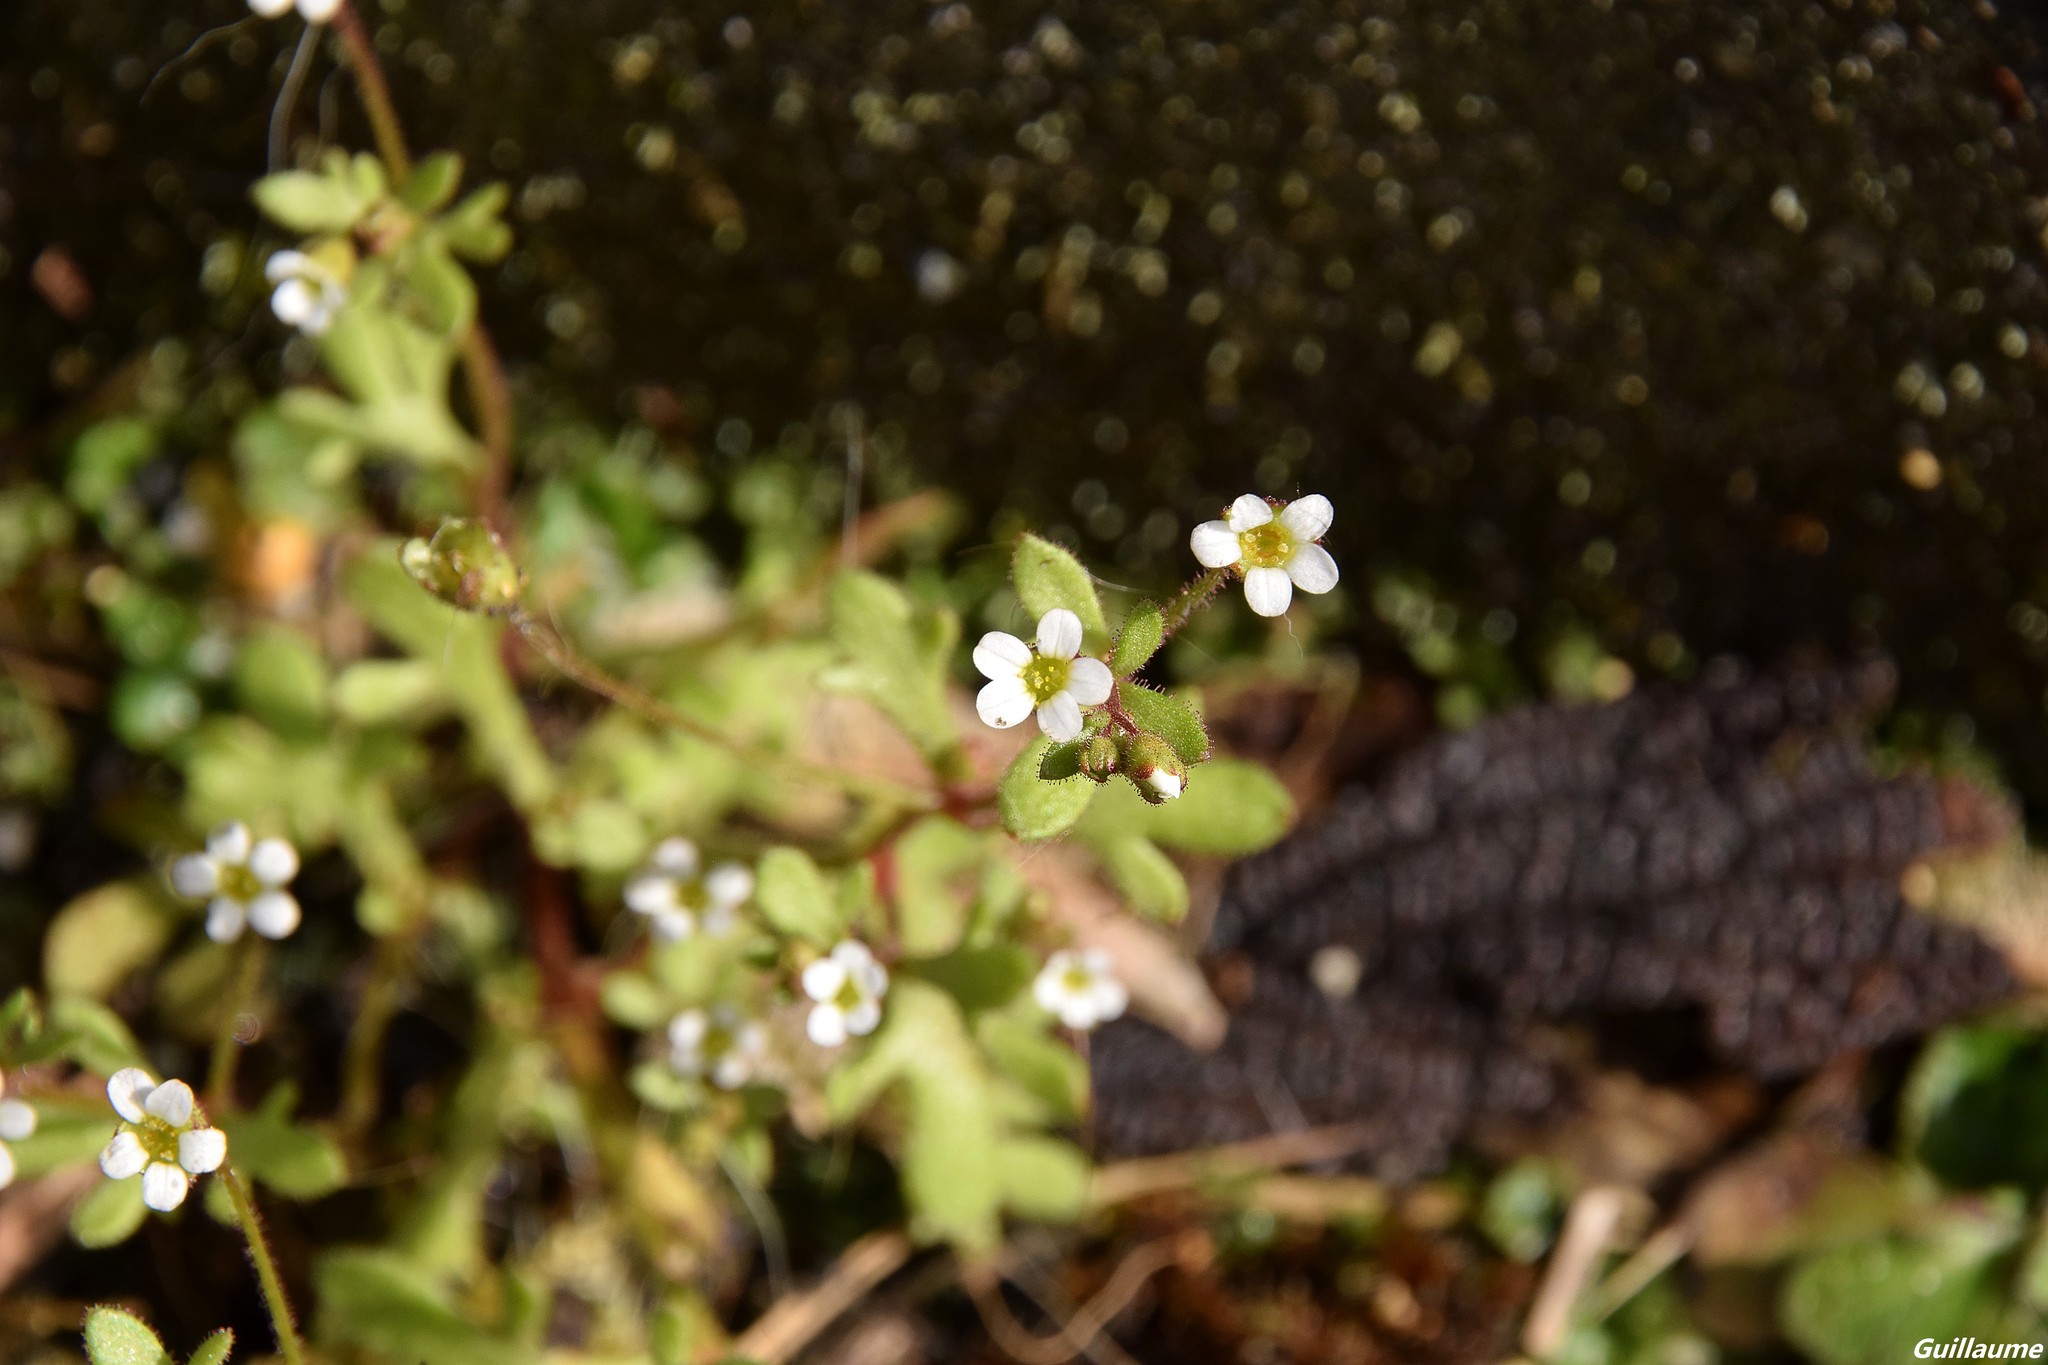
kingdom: Plantae
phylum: Tracheophyta
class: Magnoliopsida
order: Saxifragales
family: Saxifragaceae
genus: Saxifraga
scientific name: Saxifraga tridactylites
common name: Rue-leaved saxifrage
